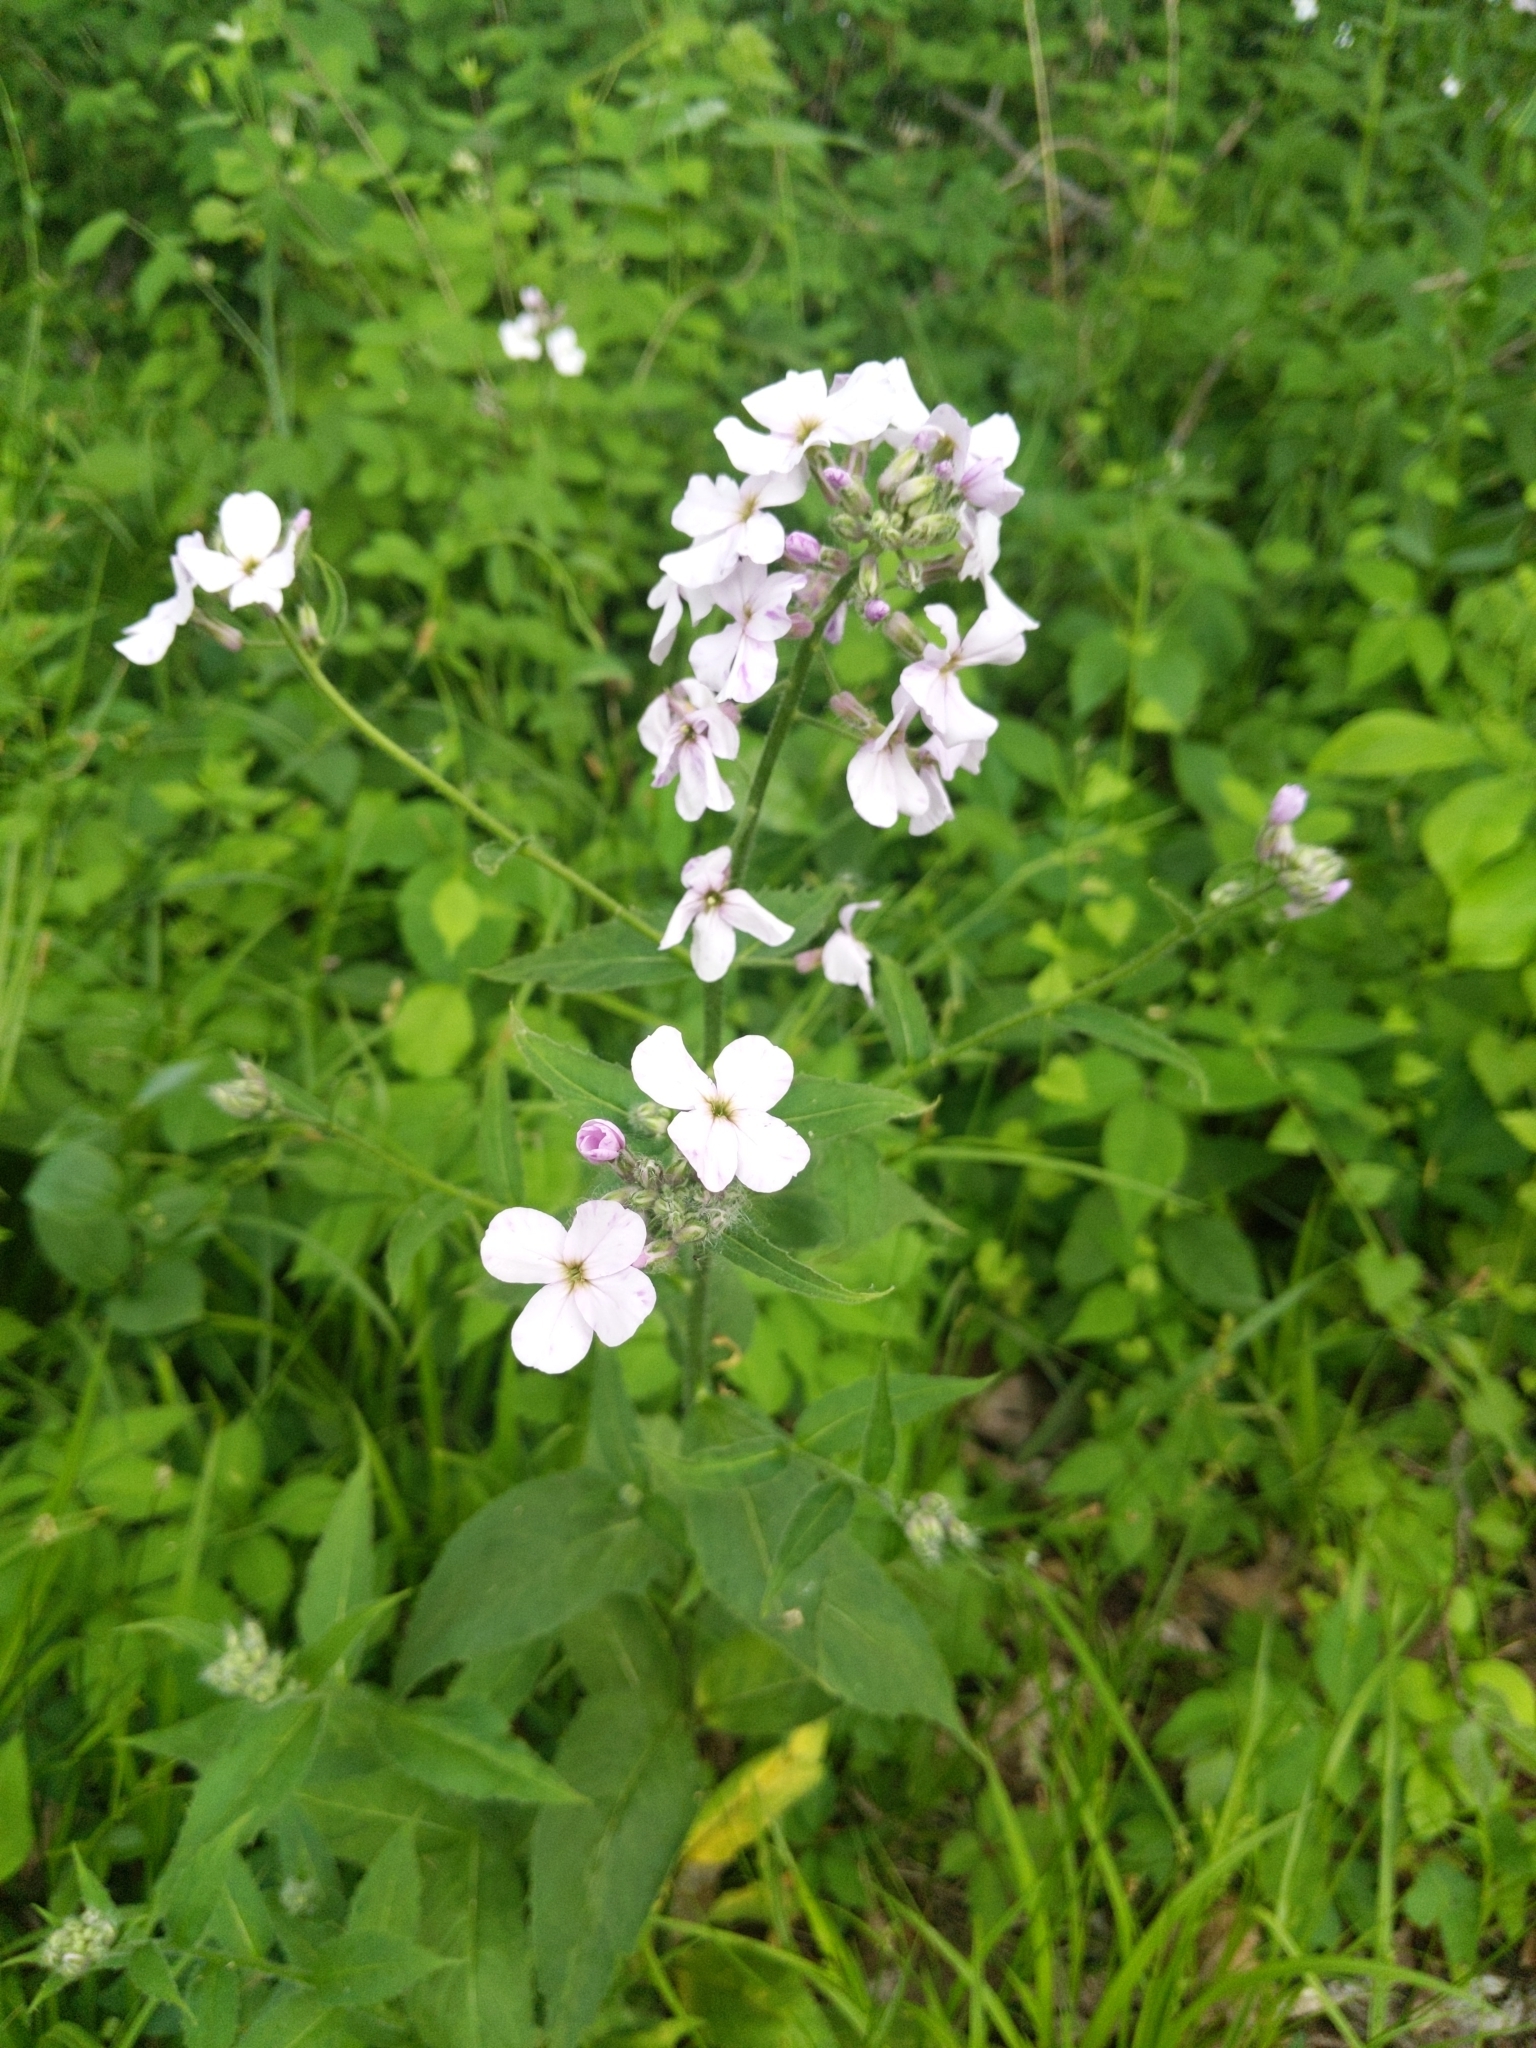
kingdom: Plantae
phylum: Tracheophyta
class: Magnoliopsida
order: Brassicales
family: Brassicaceae
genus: Hesperis
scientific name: Hesperis matronalis
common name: Dame's-violet
